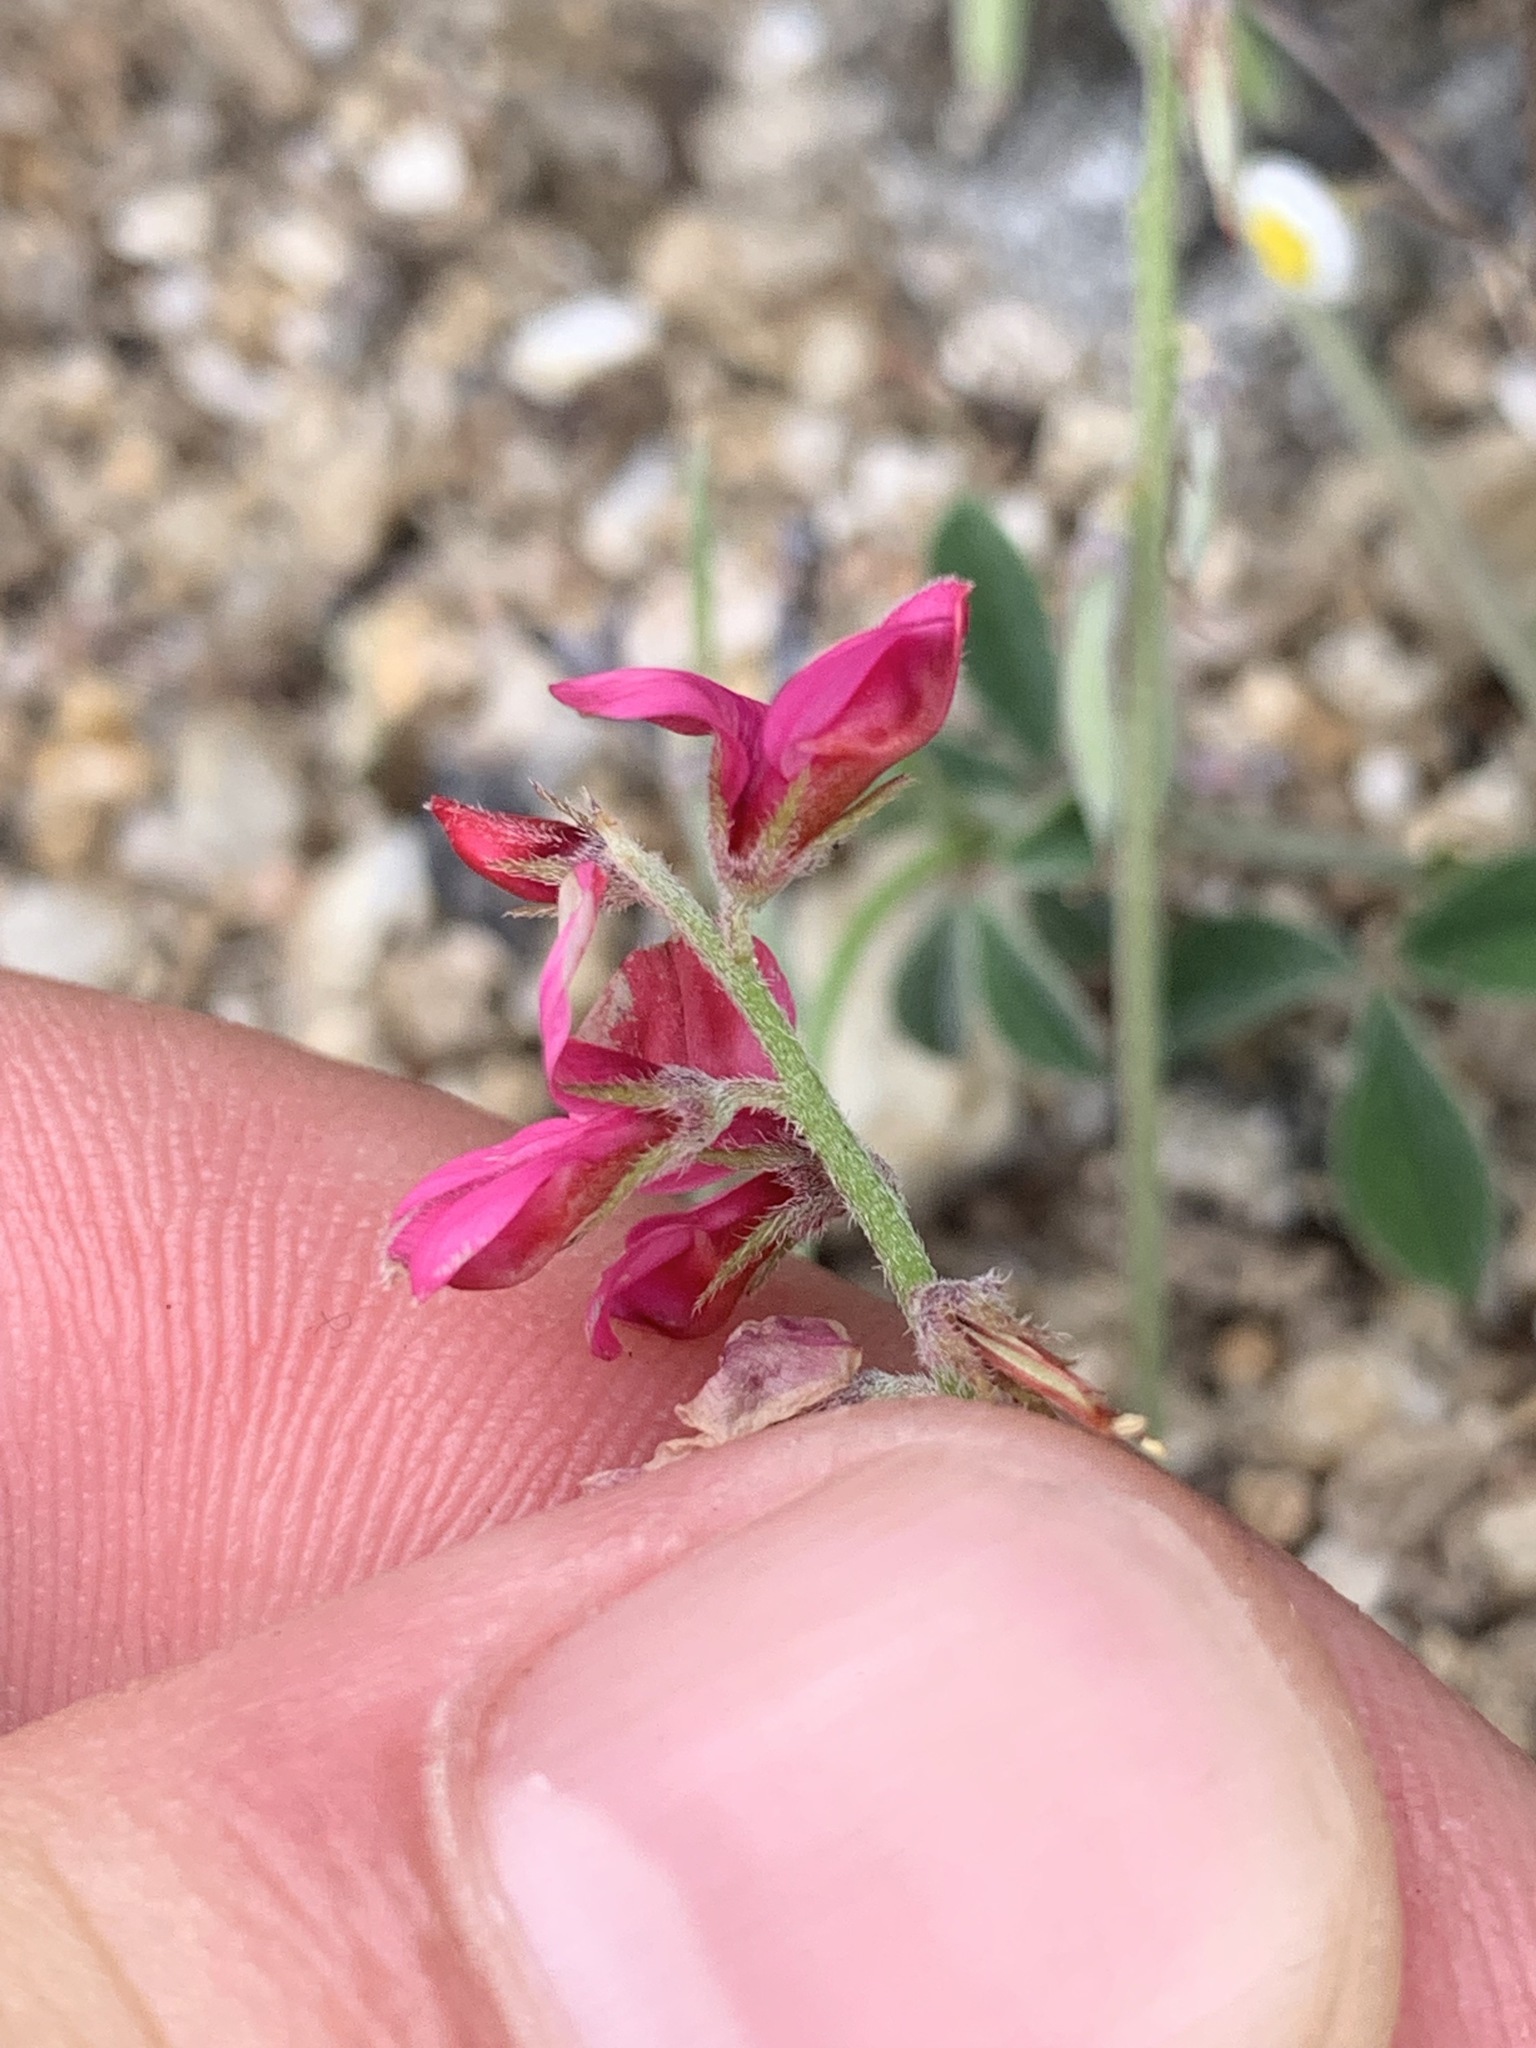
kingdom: Plantae
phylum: Tracheophyta
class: Magnoliopsida
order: Fabales
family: Fabaceae
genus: Indigofera
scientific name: Indigofera incana
